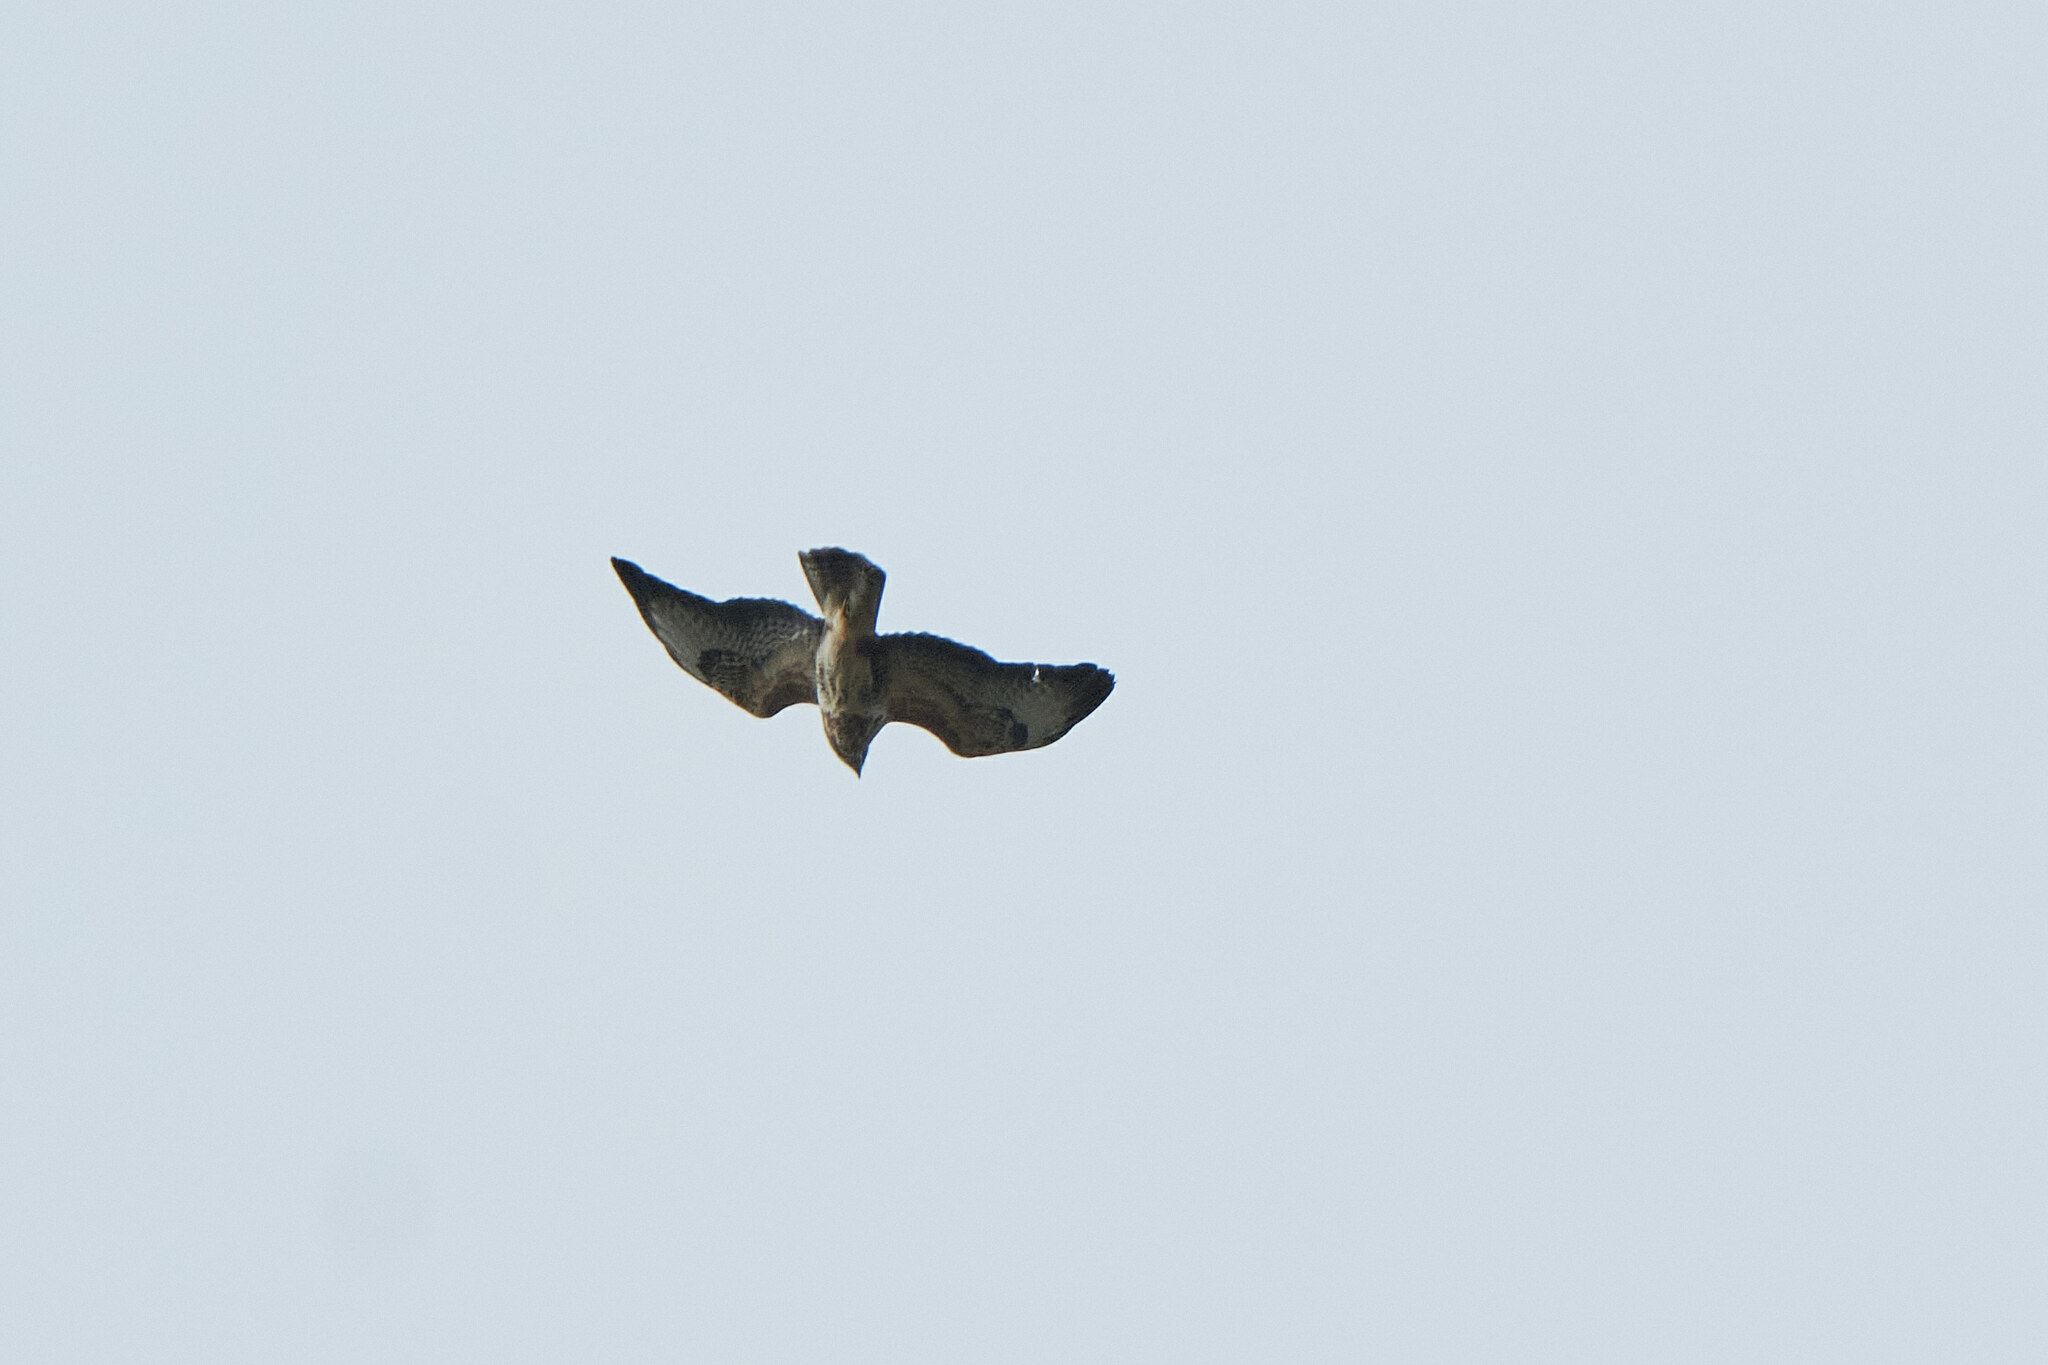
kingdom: Animalia
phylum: Chordata
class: Aves
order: Accipitriformes
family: Accipitridae
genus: Buteo
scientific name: Buteo buteo
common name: Common buzzard
